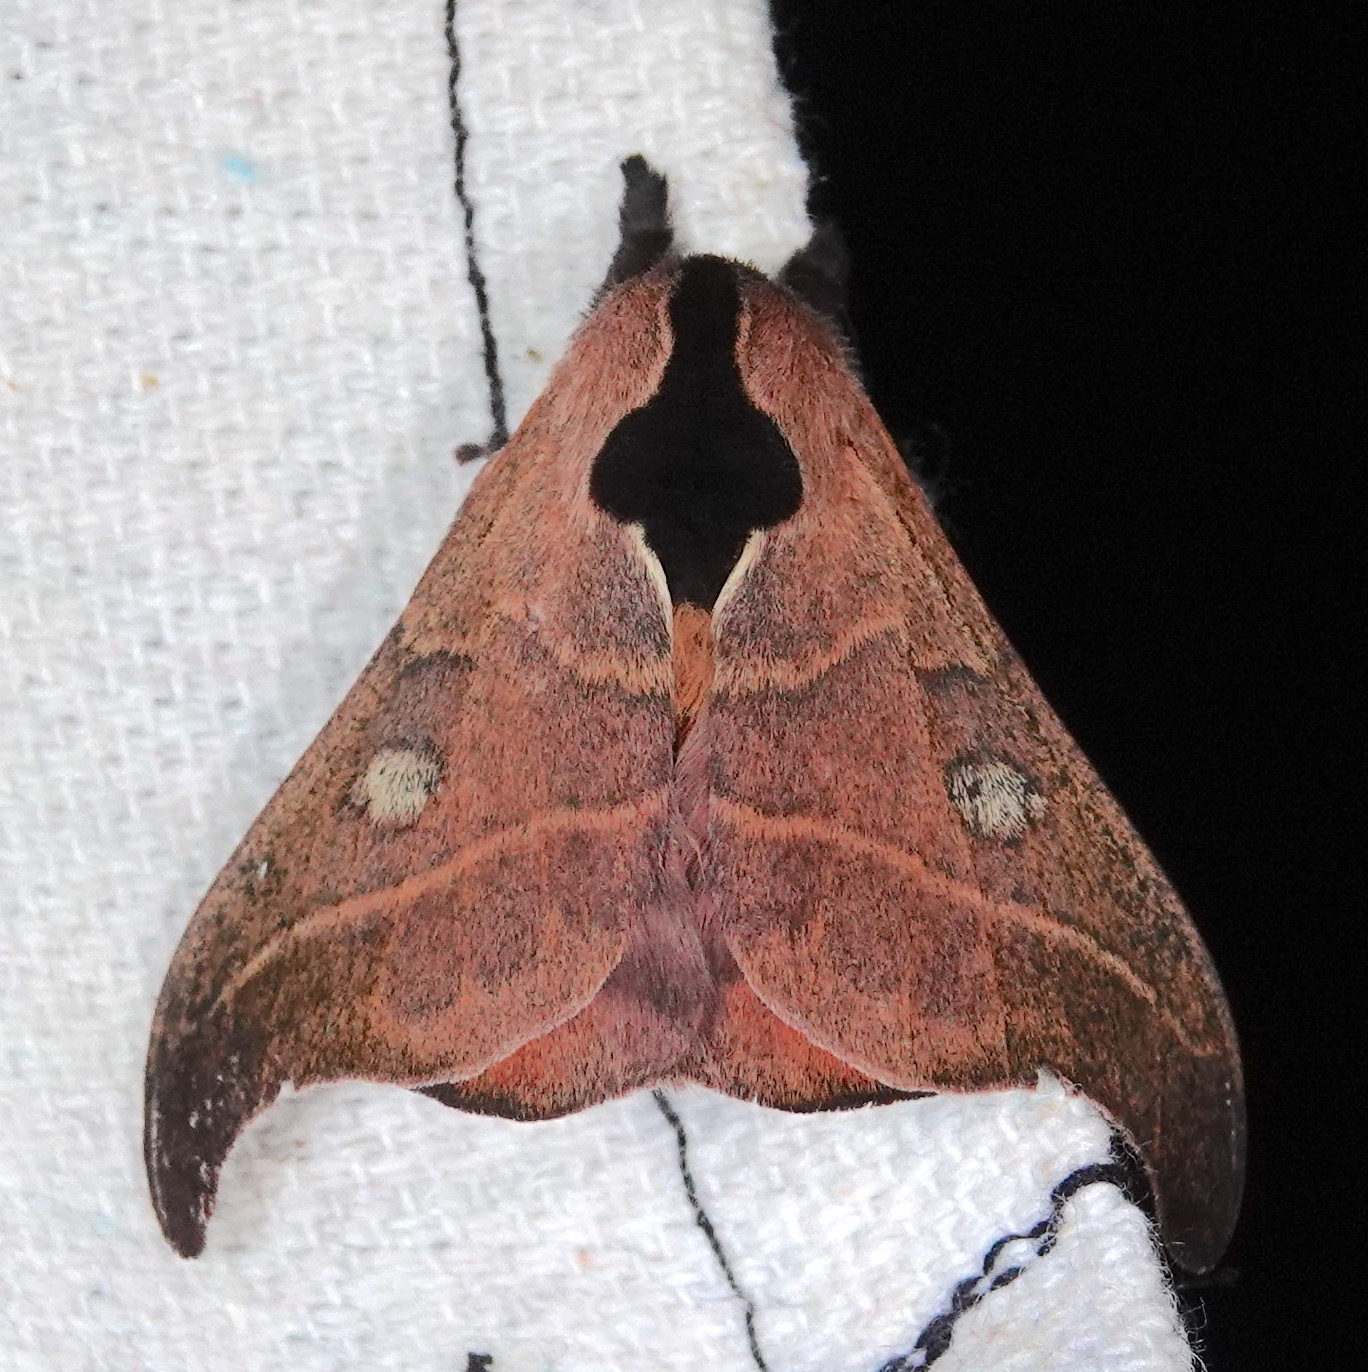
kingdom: Animalia
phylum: Arthropoda
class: Insecta
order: Lepidoptera
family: Saturniidae
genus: Hylesia
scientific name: Hylesia nanus
